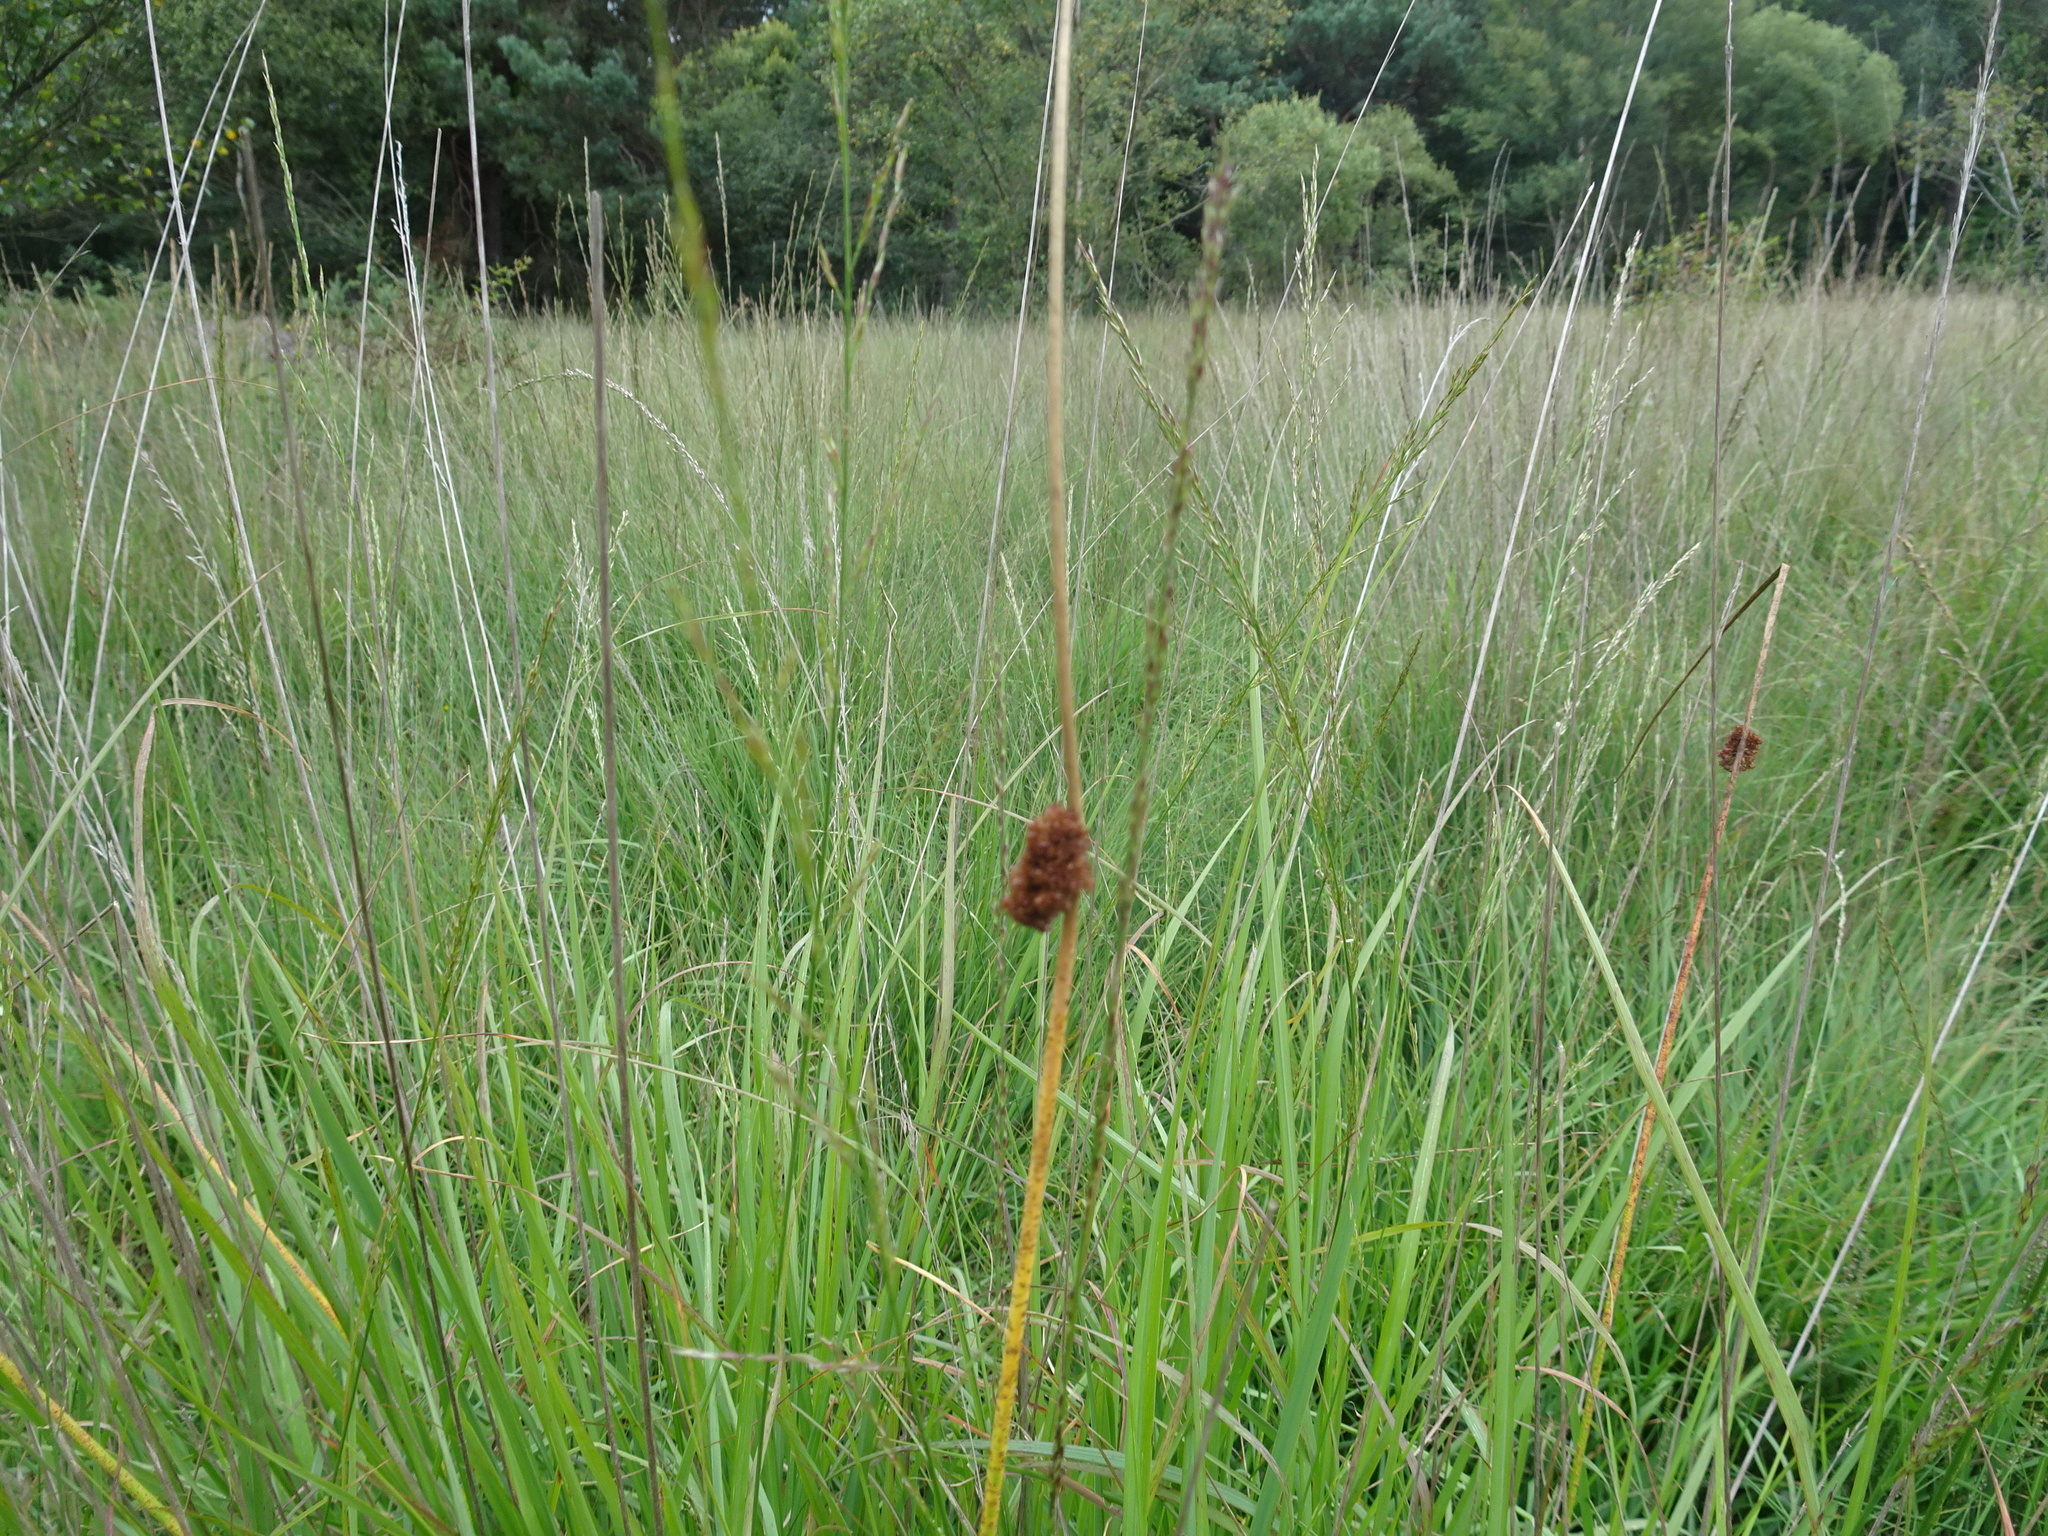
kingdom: Plantae
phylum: Tracheophyta
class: Liliopsida
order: Poales
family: Juncaceae
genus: Juncus
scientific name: Juncus conglomeratus
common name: Compact rush
